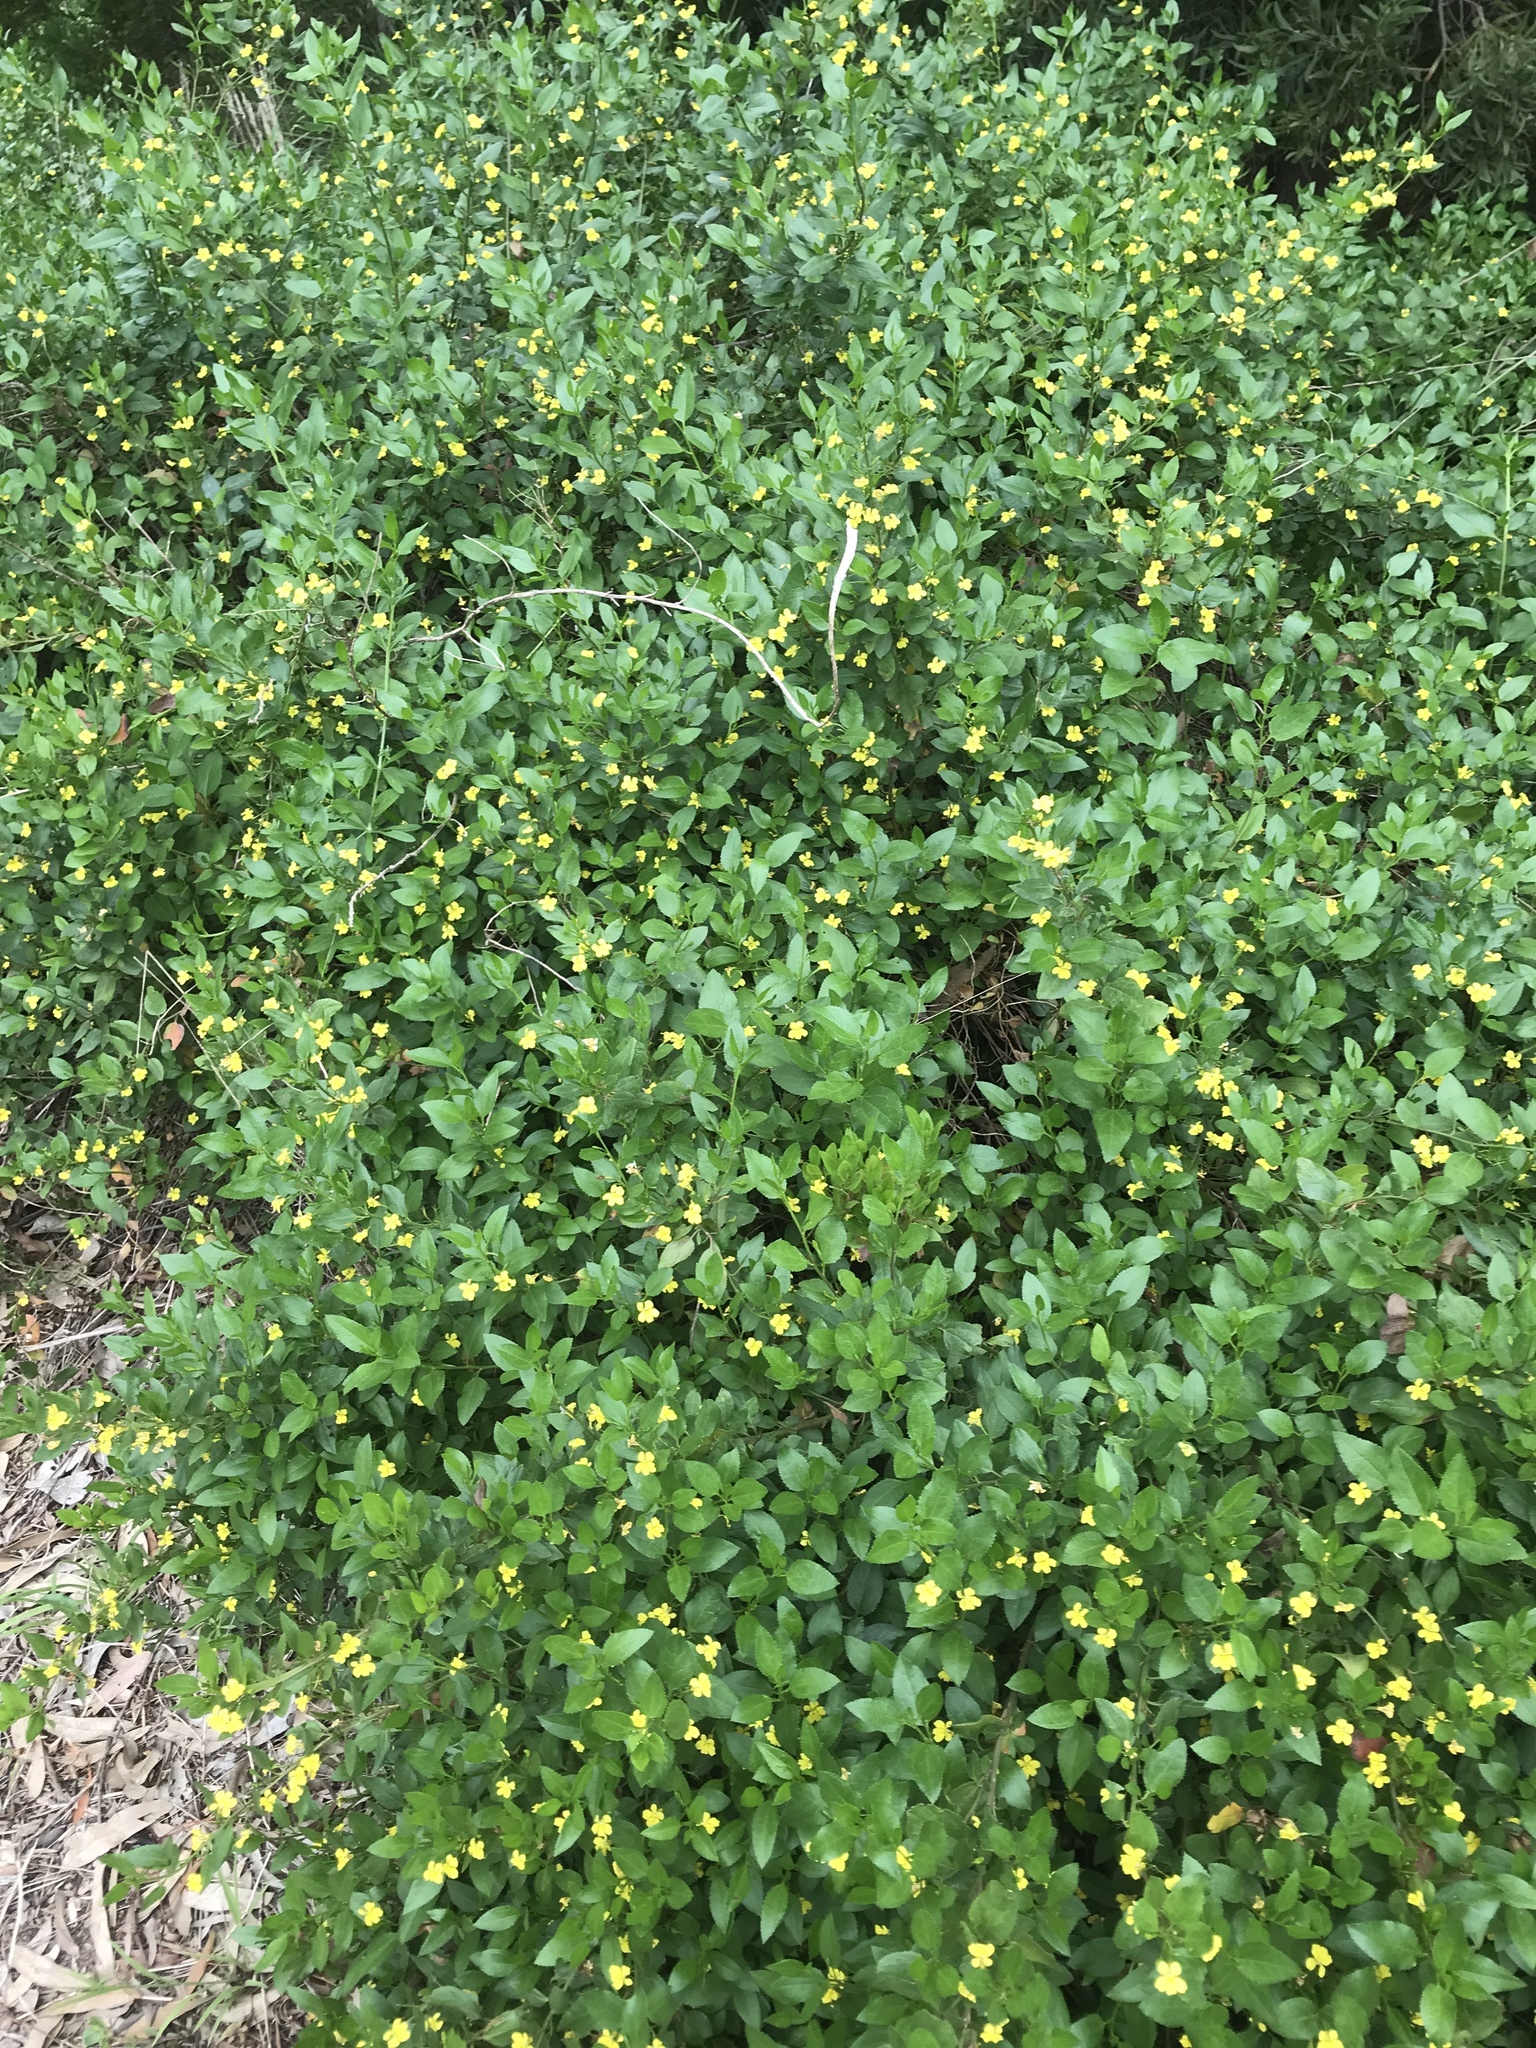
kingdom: Plantae
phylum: Tracheophyta
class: Magnoliopsida
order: Asterales
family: Goodeniaceae
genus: Goodenia
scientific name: Goodenia ovata
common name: Hop goodenia
